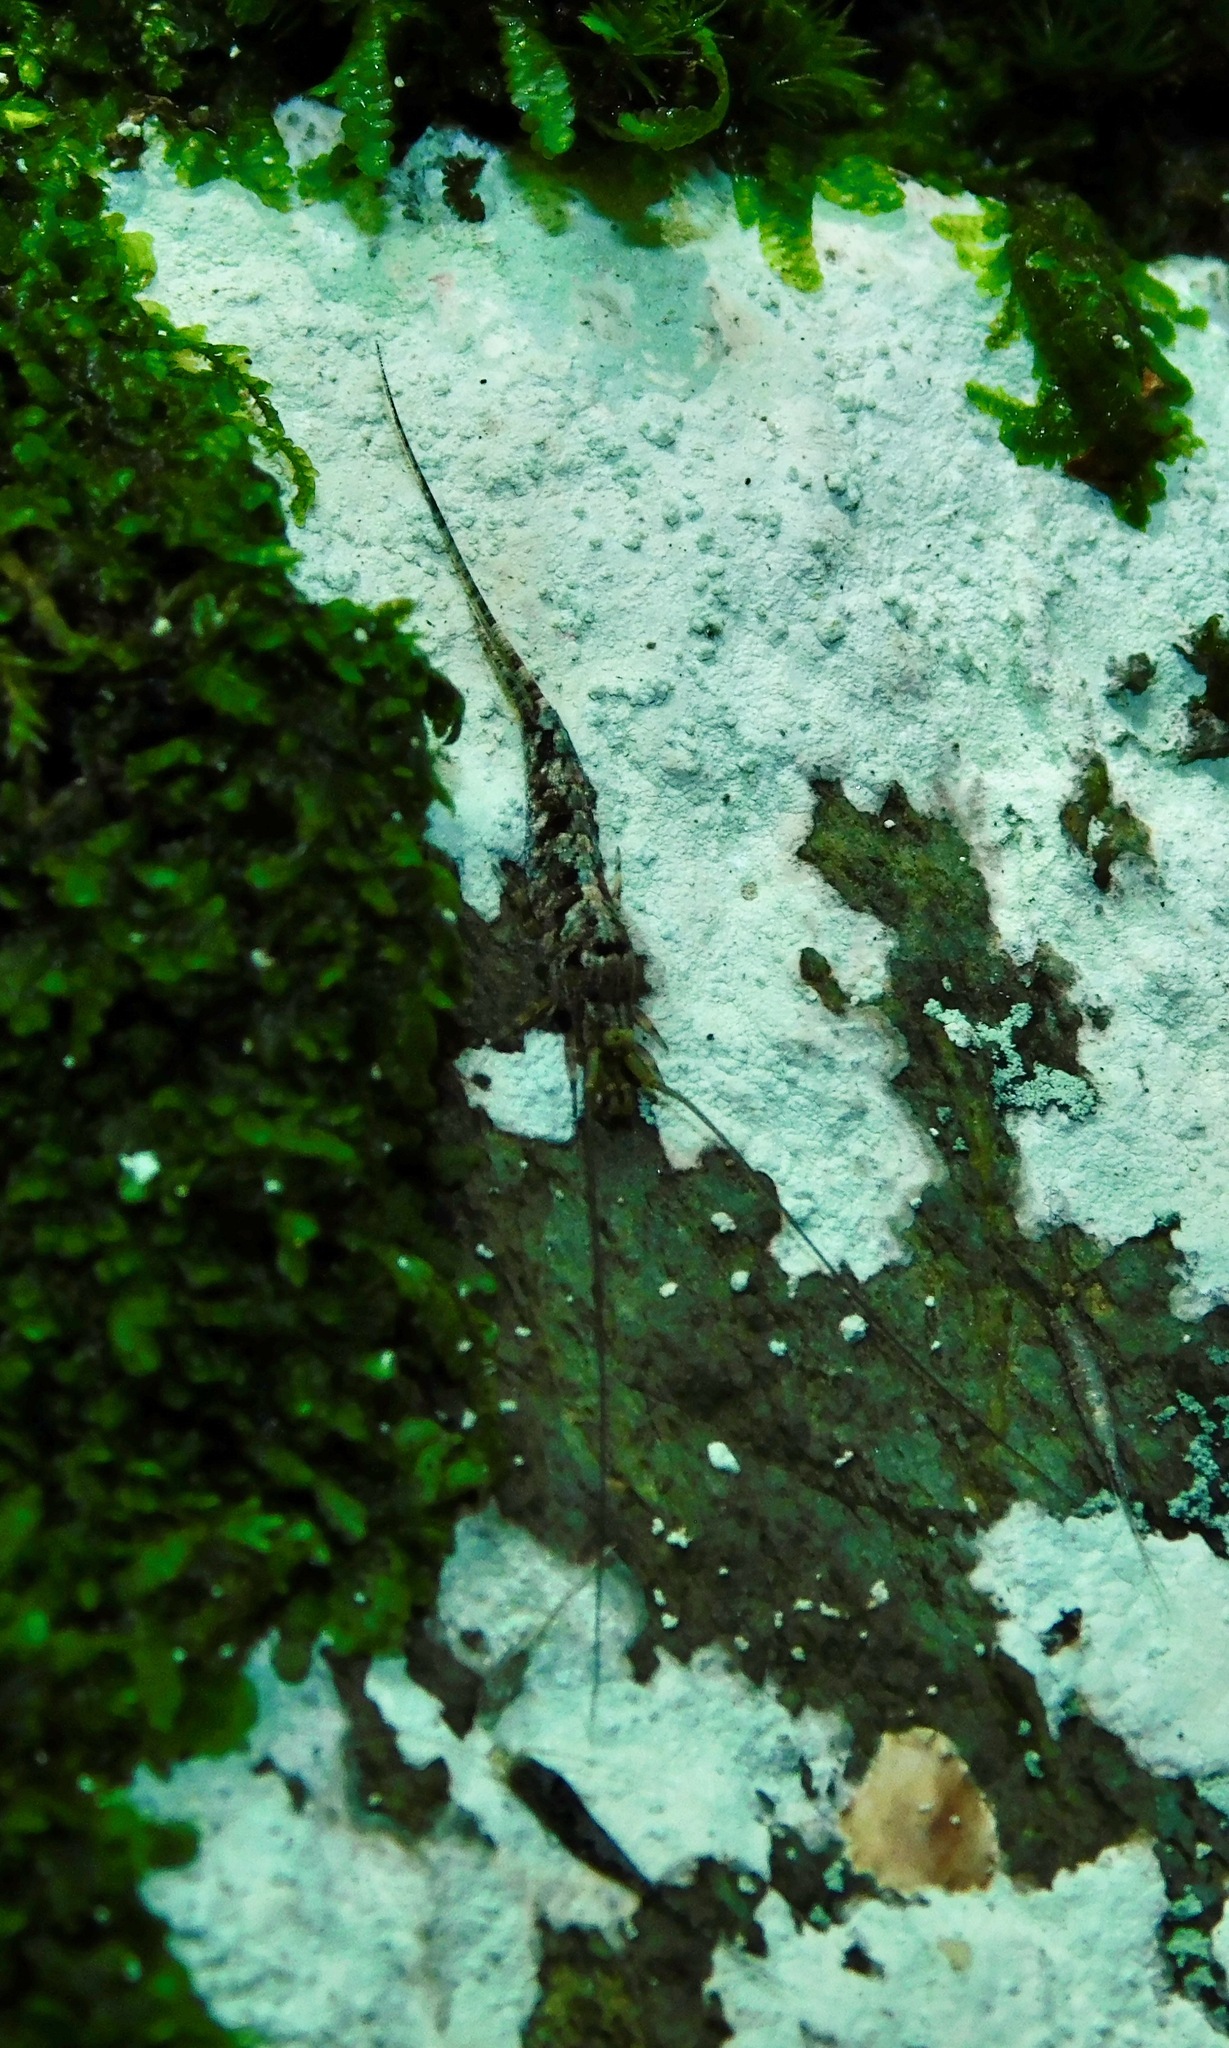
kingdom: Animalia
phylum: Arthropoda
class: Insecta
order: Archaeognatha
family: Machilidae
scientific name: Machilidae
